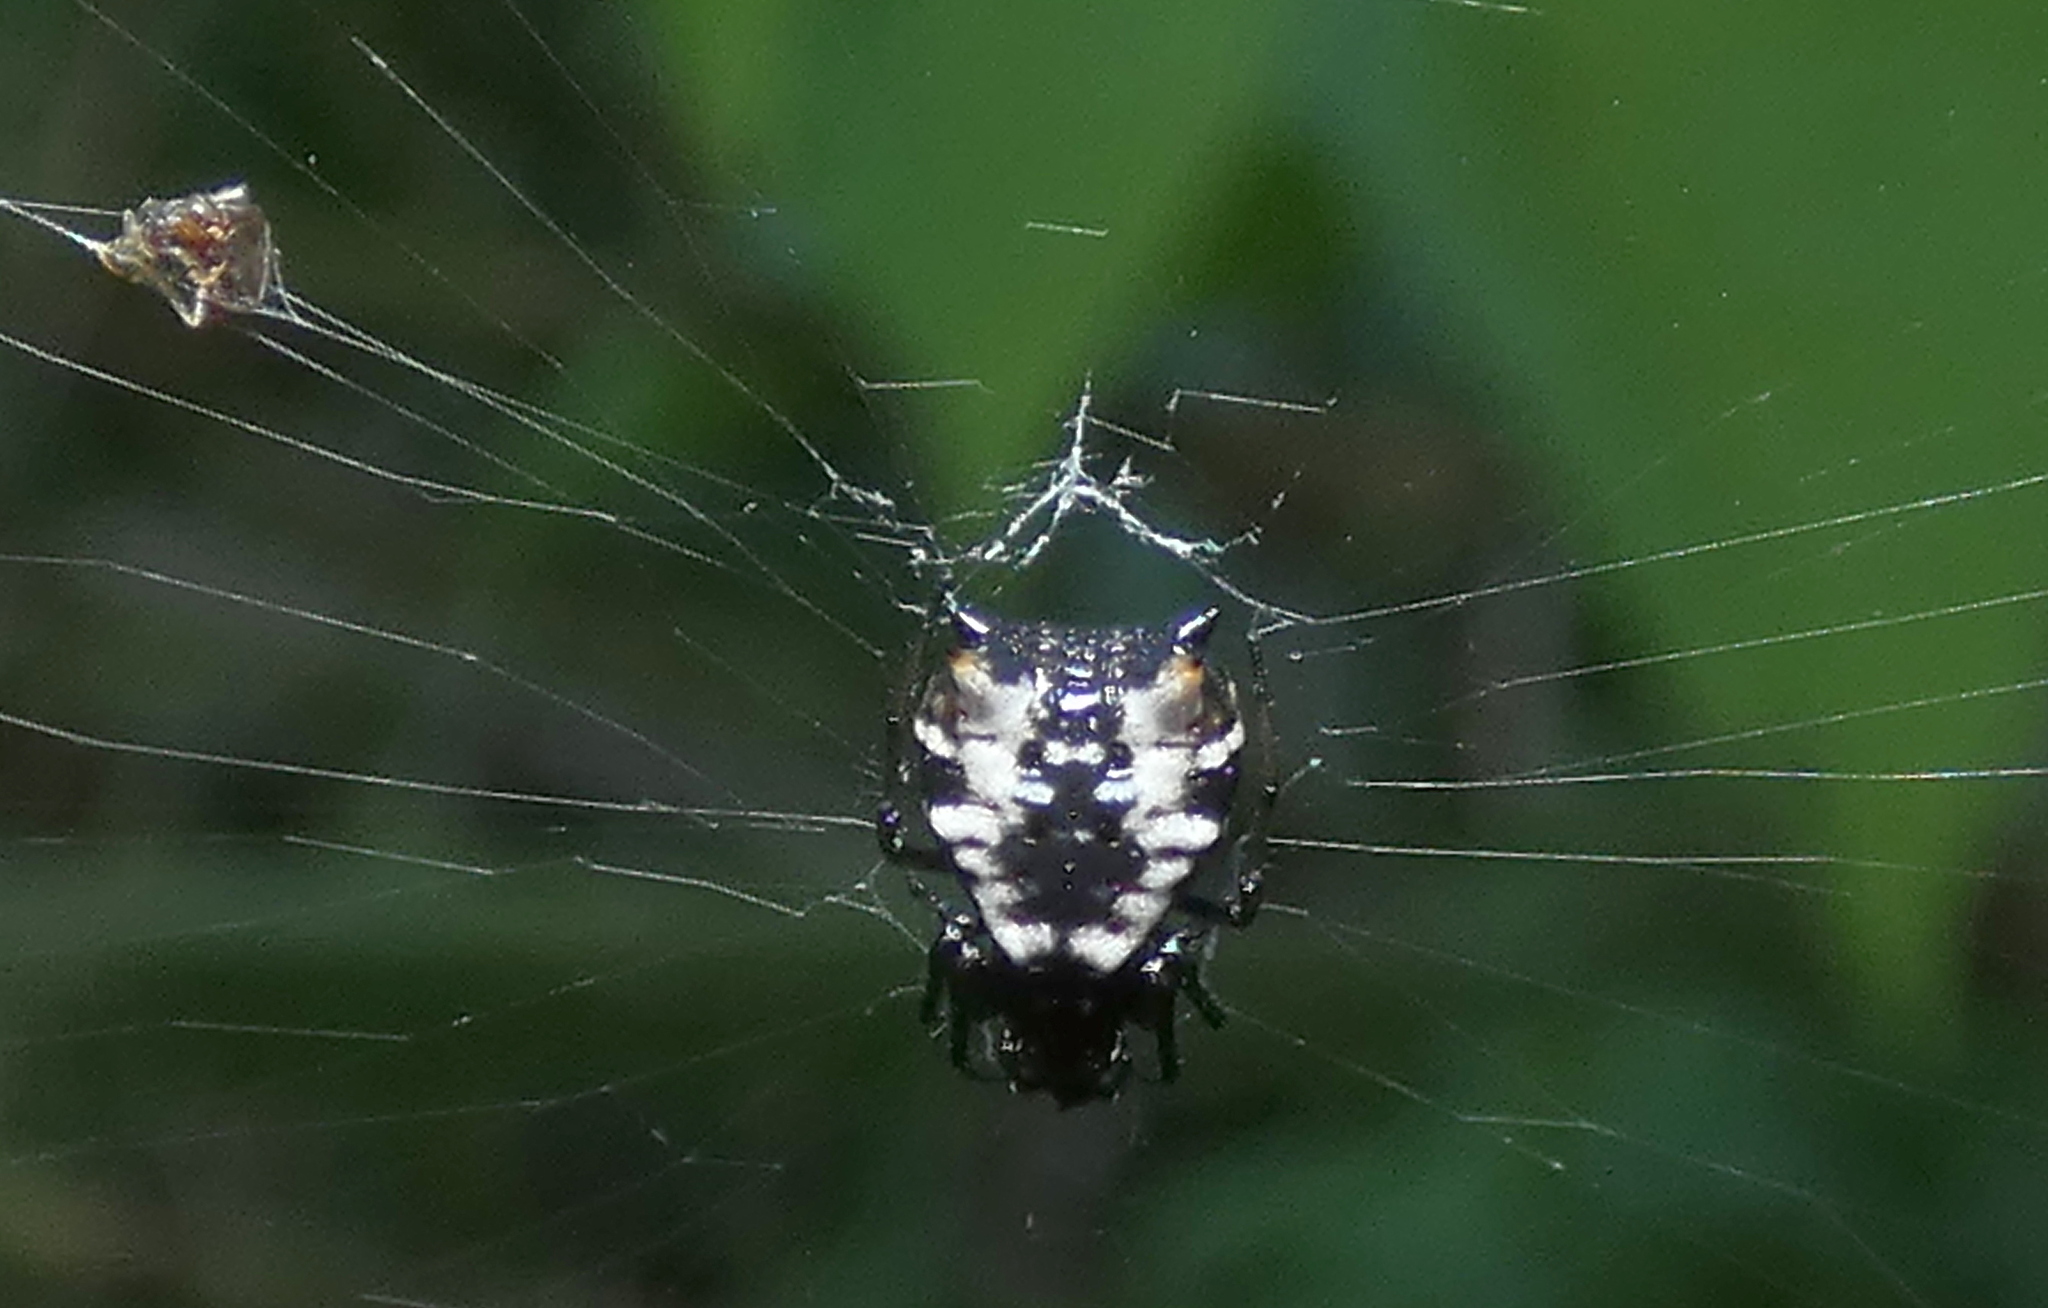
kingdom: Animalia
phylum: Arthropoda
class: Arachnida
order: Araneae
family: Araneidae
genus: Micrathena
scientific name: Micrathena patruelis
